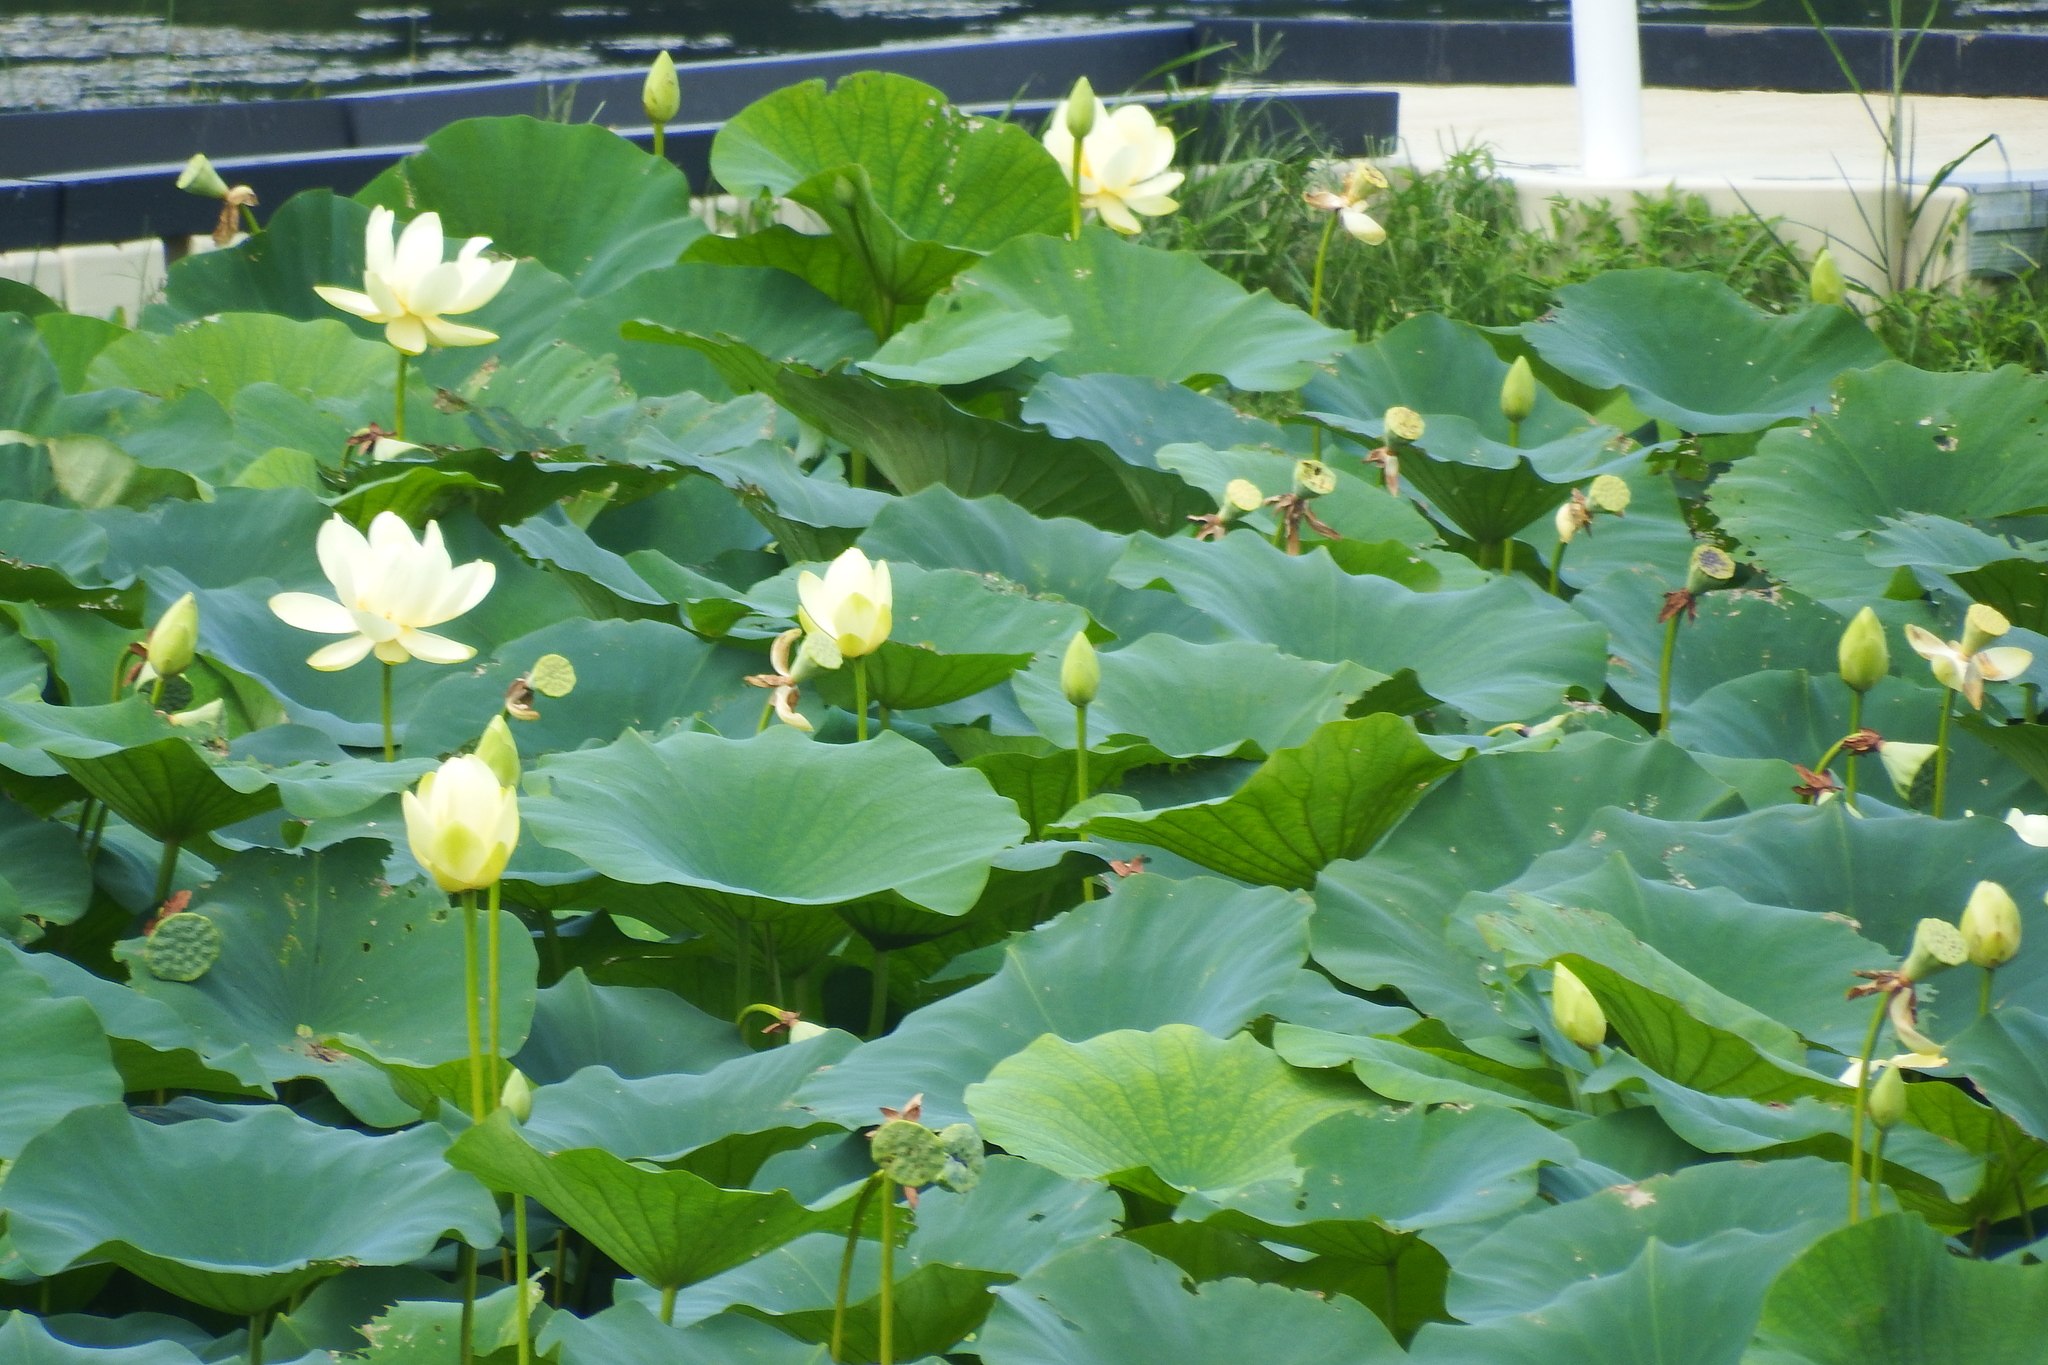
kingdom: Plantae
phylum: Tracheophyta
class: Magnoliopsida
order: Proteales
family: Nelumbonaceae
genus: Nelumbo
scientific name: Nelumbo lutea
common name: American lotus
